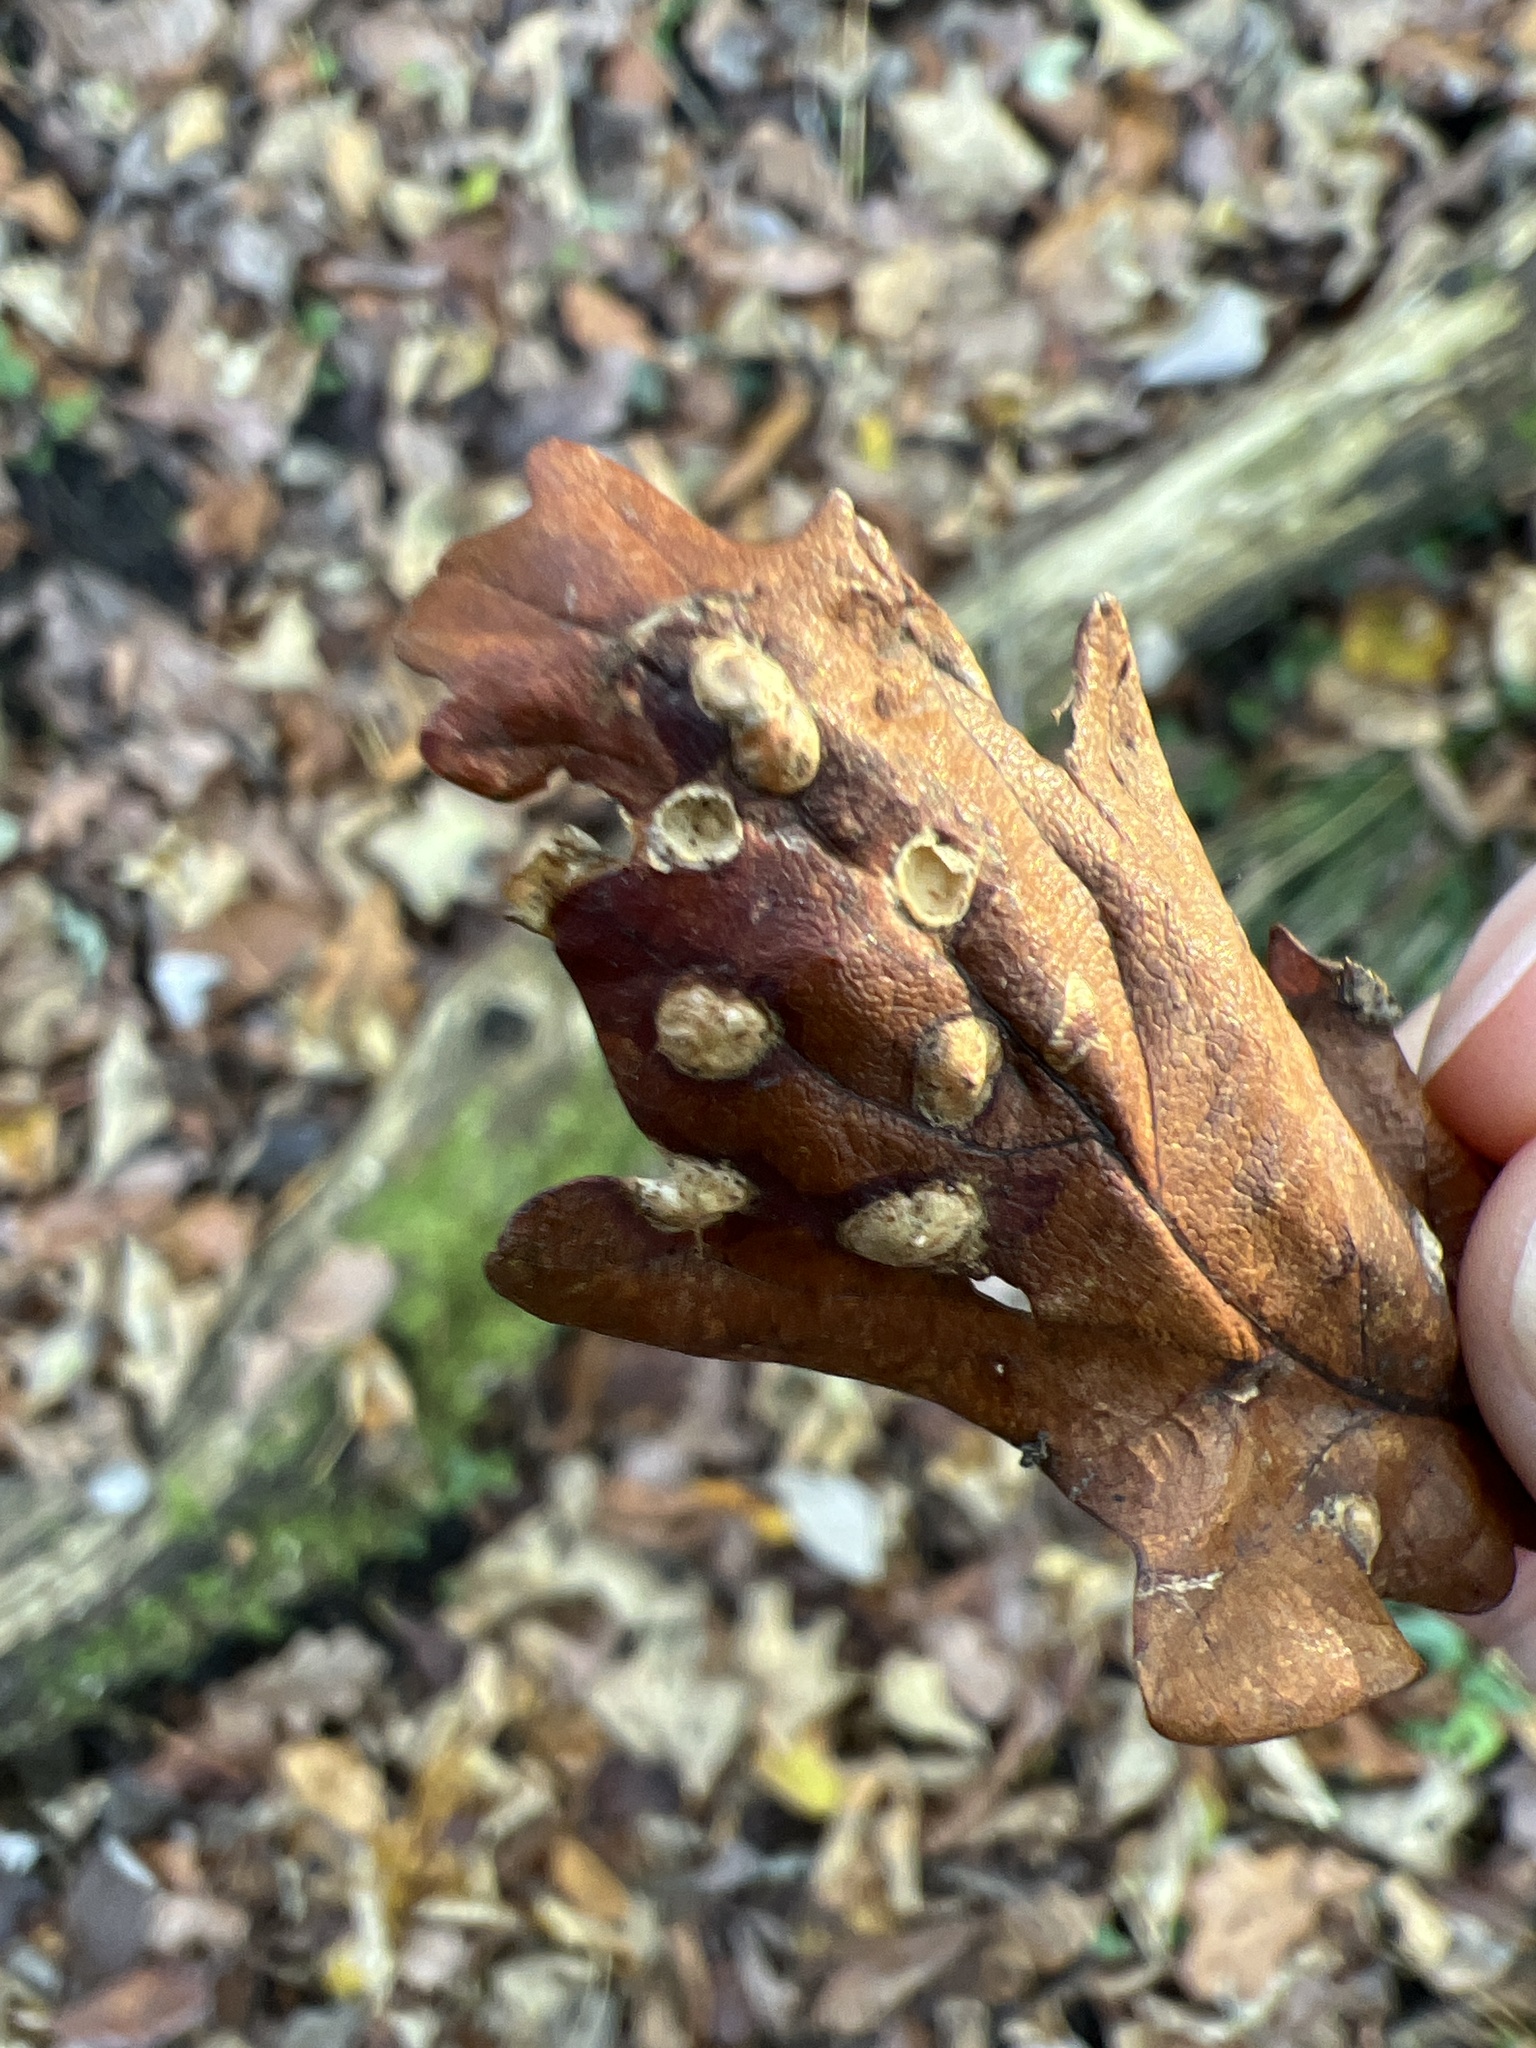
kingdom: Animalia
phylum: Arthropoda
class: Insecta
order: Hymenoptera
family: Cynipidae
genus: Neuroterus
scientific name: Neuroterus numismalis
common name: Silk-button spangle gall
